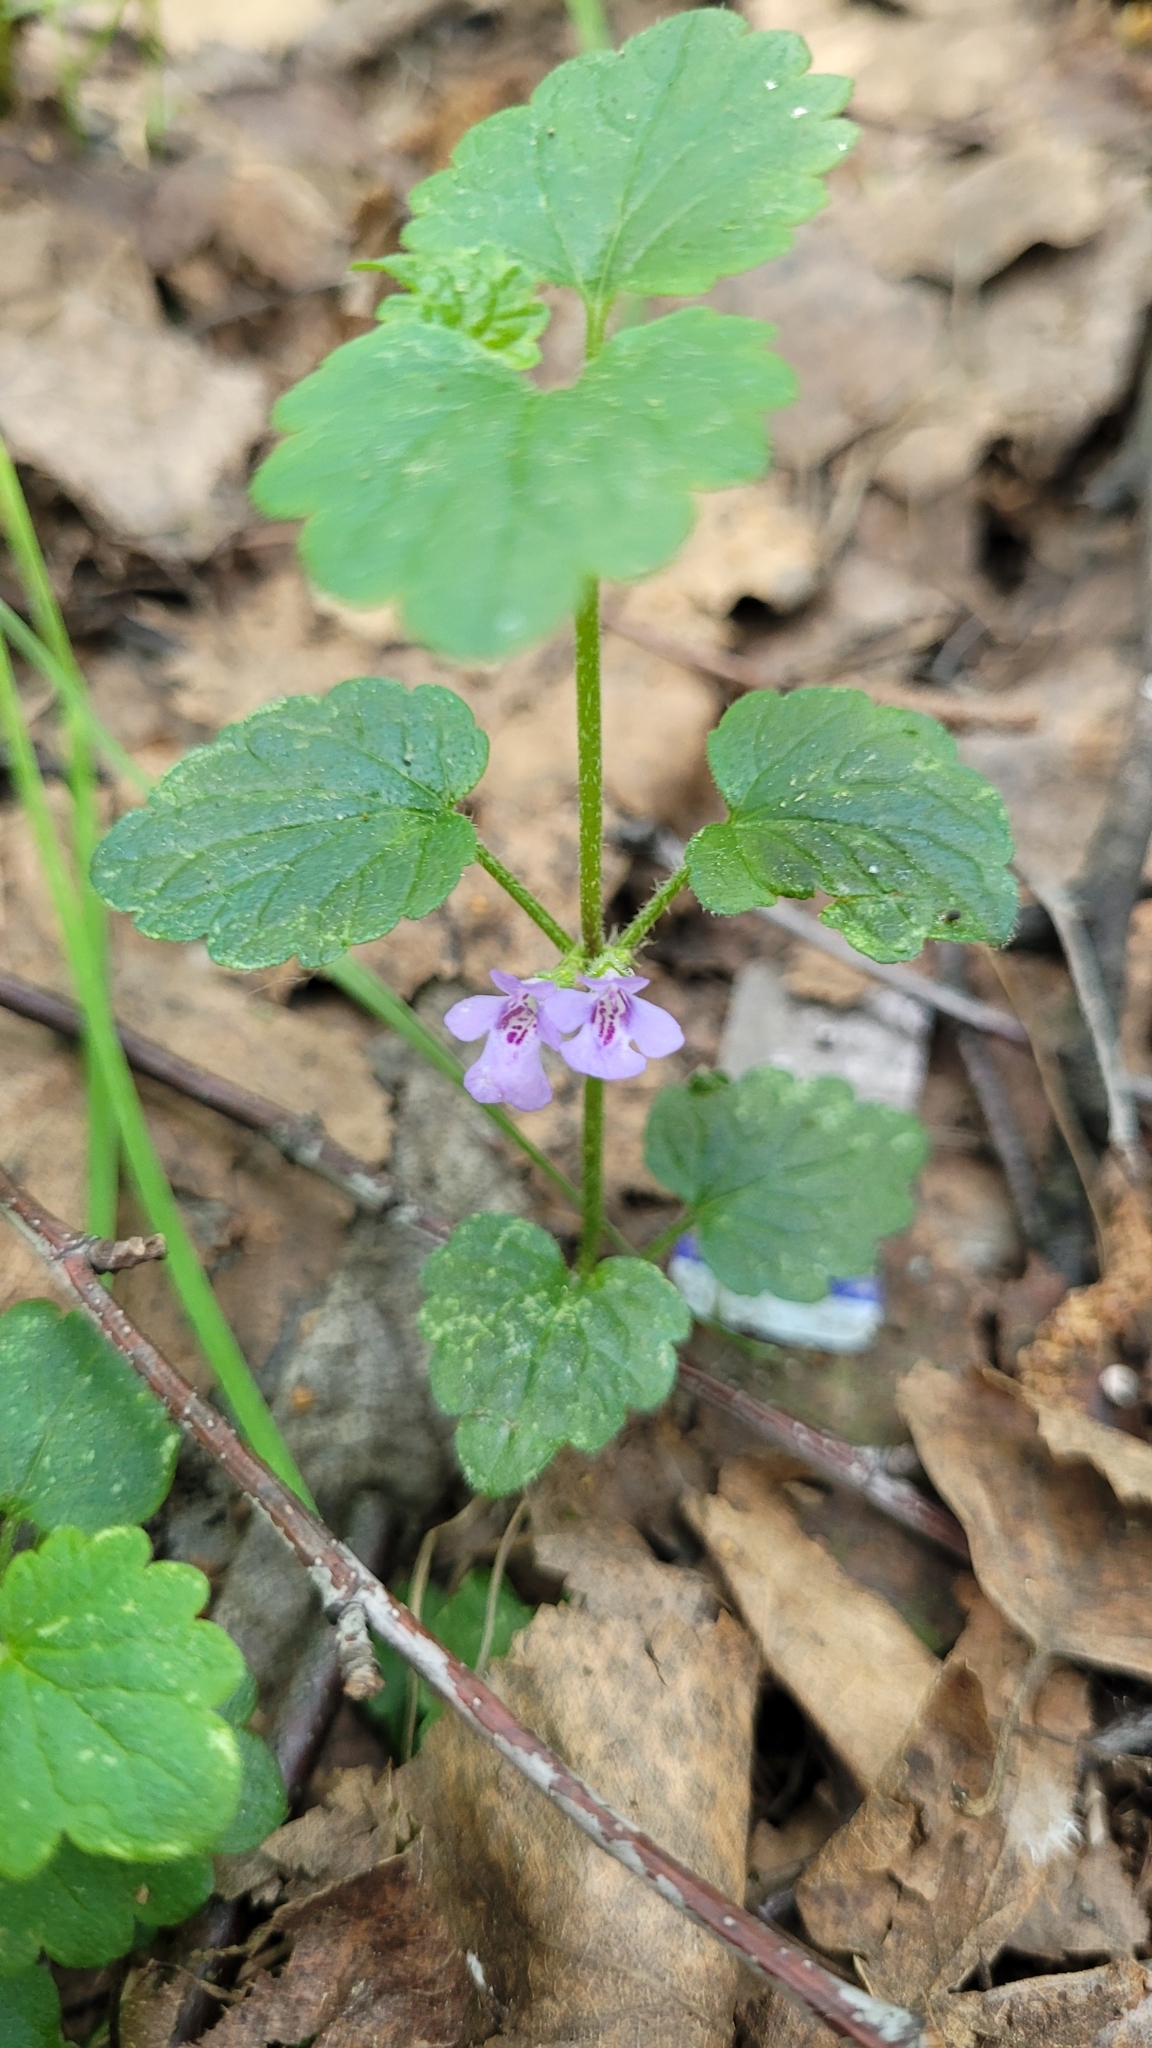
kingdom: Plantae
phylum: Tracheophyta
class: Magnoliopsida
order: Lamiales
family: Lamiaceae
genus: Glechoma
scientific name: Glechoma hederacea
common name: Ground ivy
